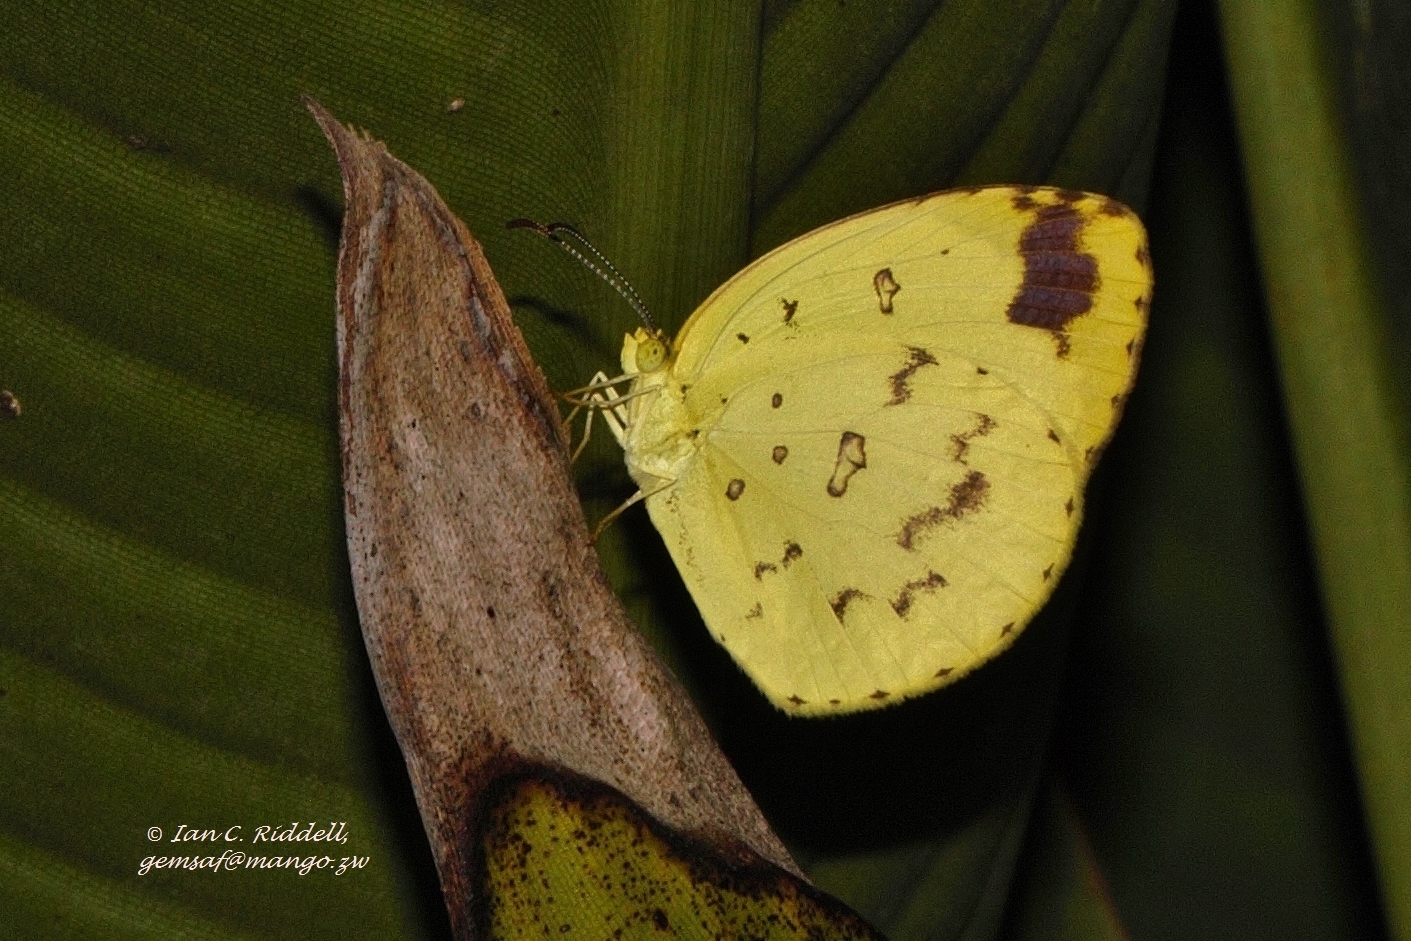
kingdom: Animalia
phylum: Arthropoda
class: Insecta
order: Lepidoptera
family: Pieridae
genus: Eurema
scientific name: Eurema hecabe
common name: Pale grass yellow
